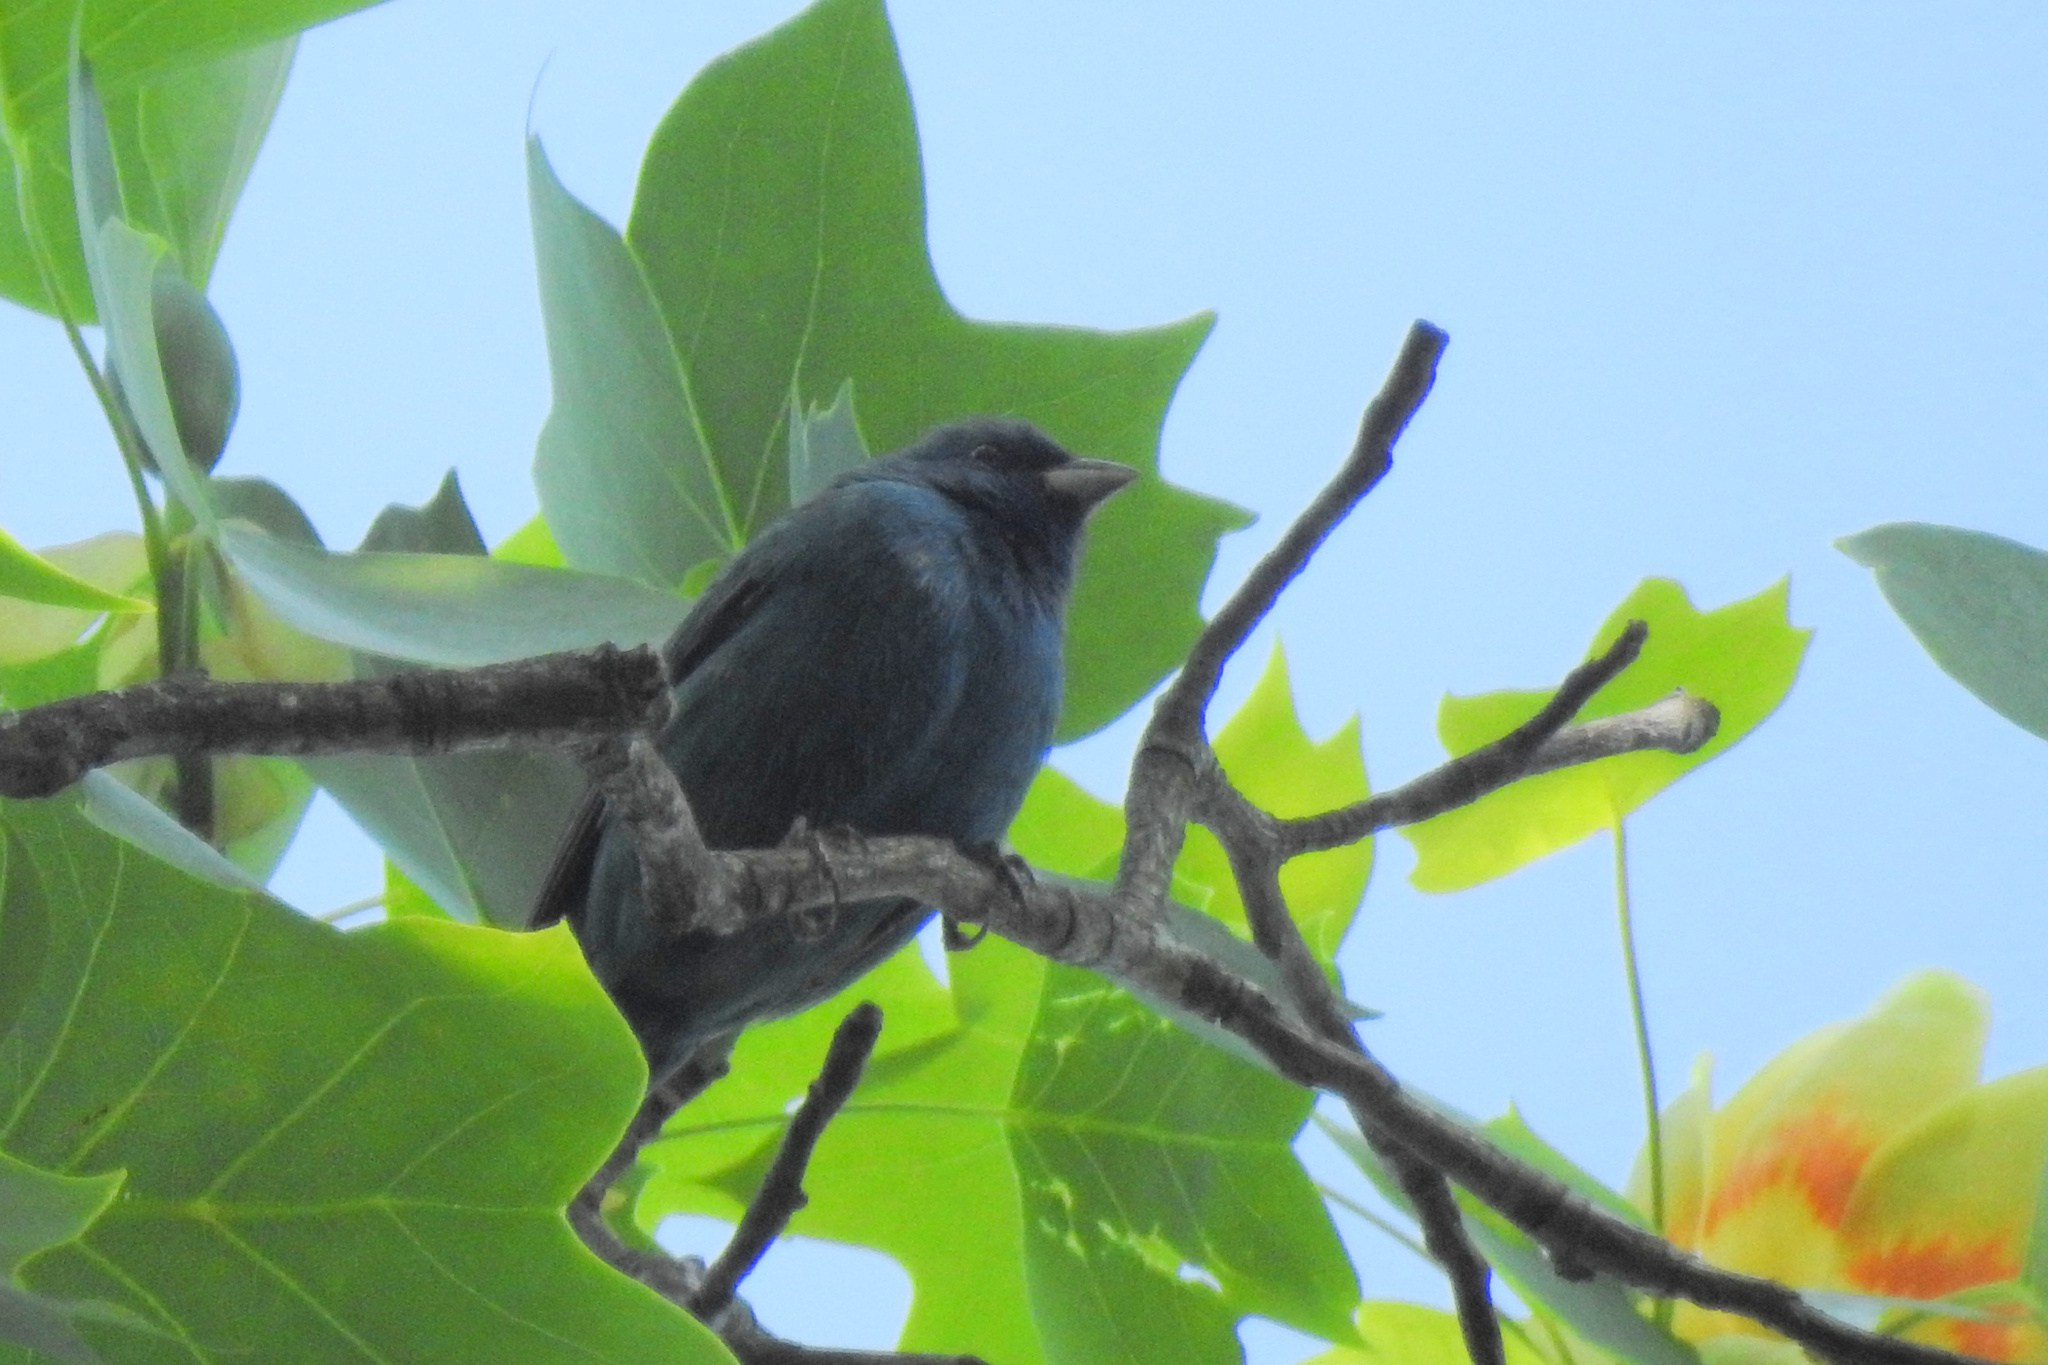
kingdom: Animalia
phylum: Chordata
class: Aves
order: Passeriformes
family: Cardinalidae
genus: Passerina
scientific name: Passerina cyanea
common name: Indigo bunting
